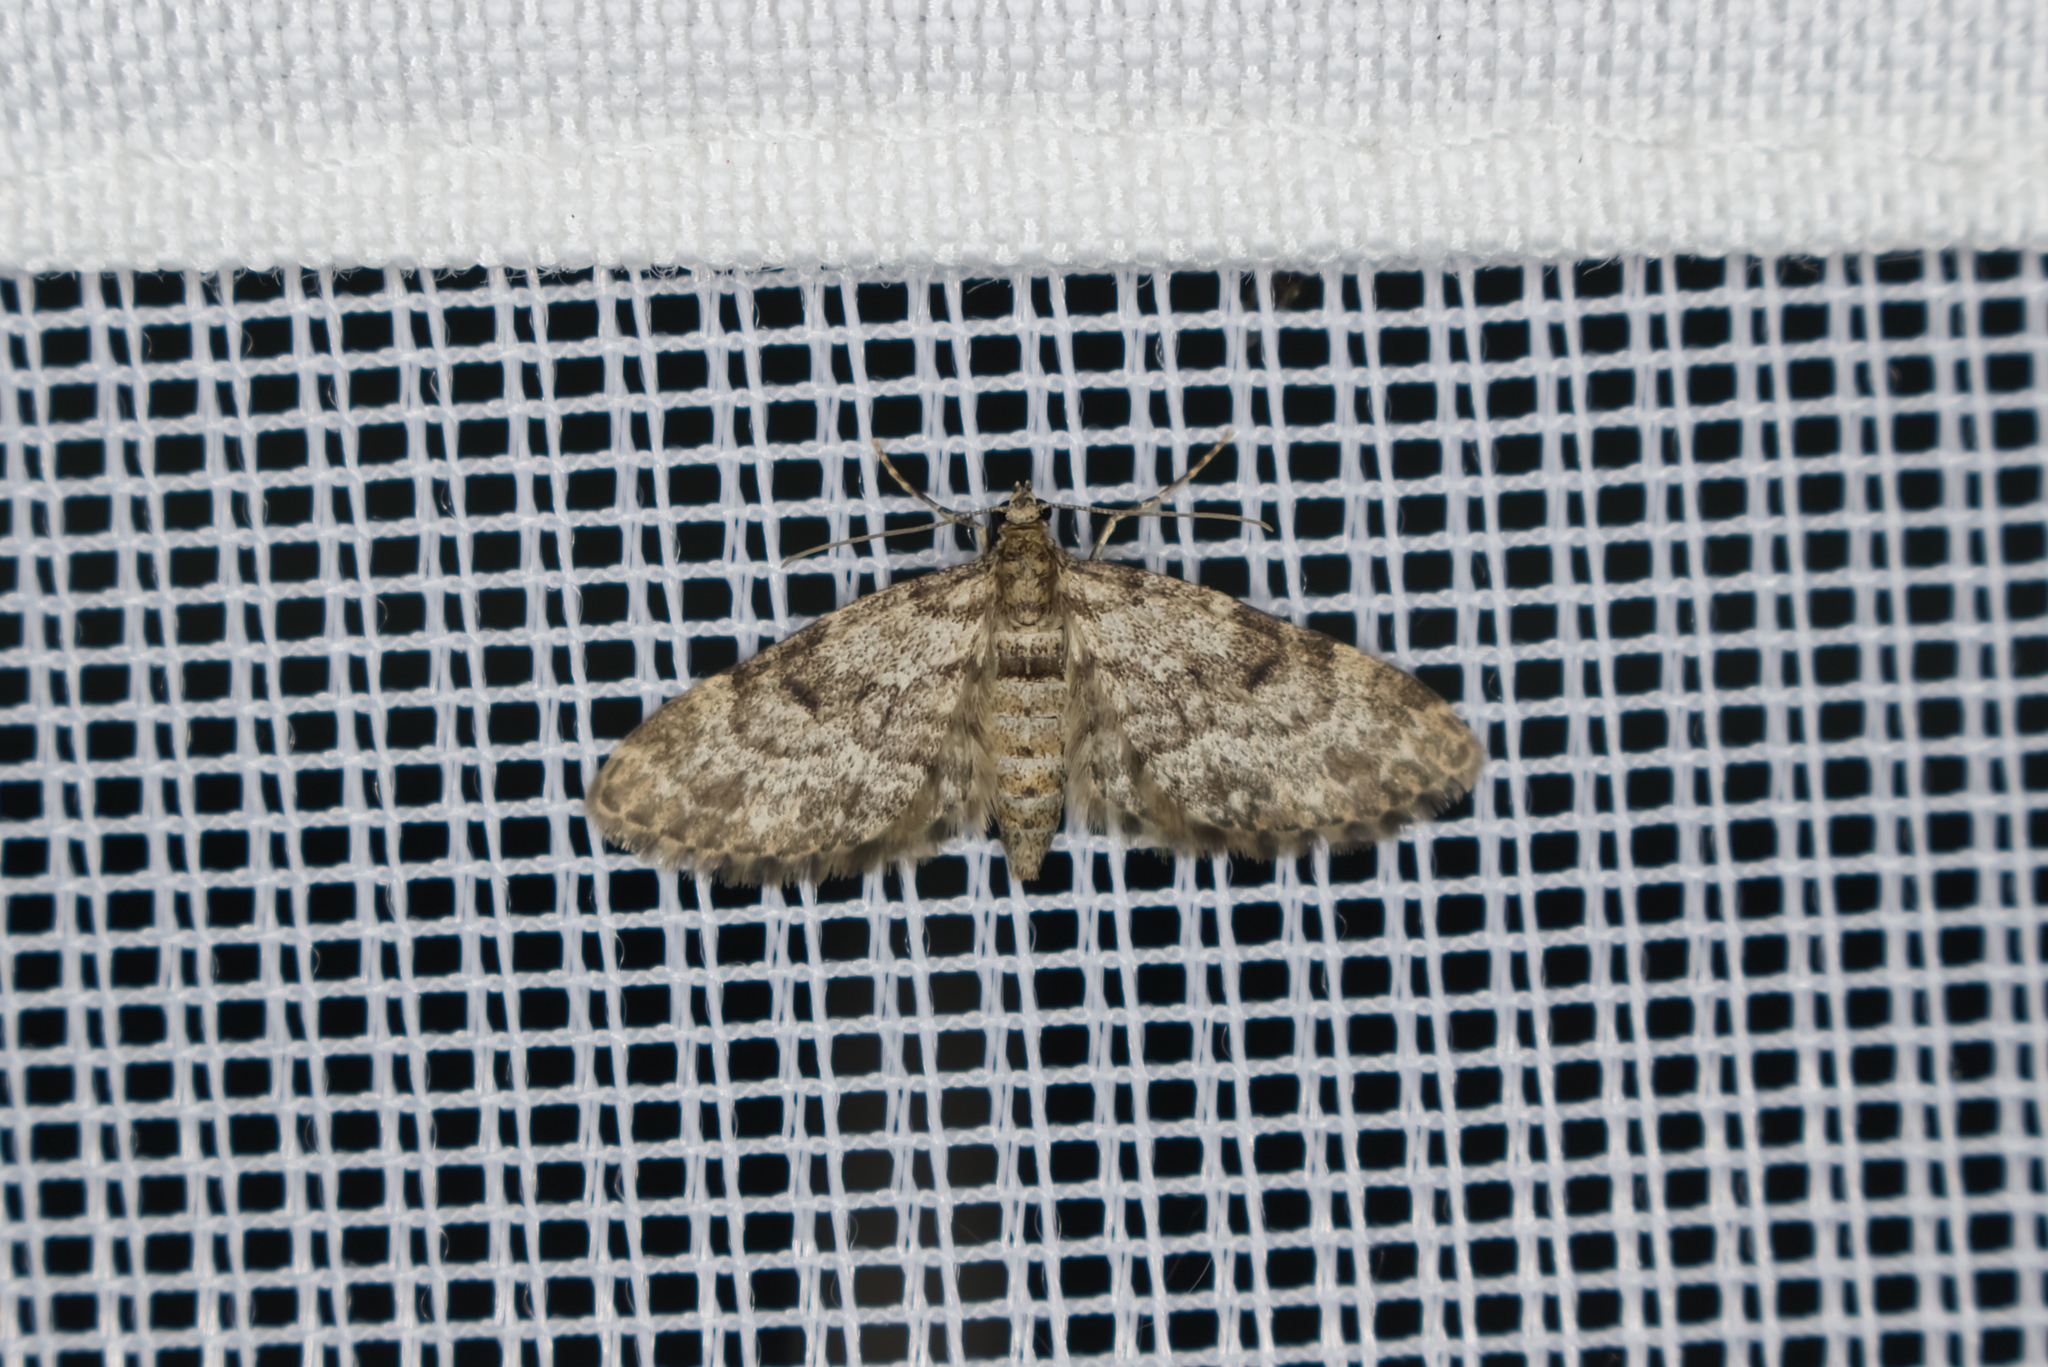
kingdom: Animalia
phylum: Arthropoda
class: Insecta
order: Lepidoptera
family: Geometridae
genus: Eupithecia
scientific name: Eupithecia tantillaria
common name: Dwarf pug
